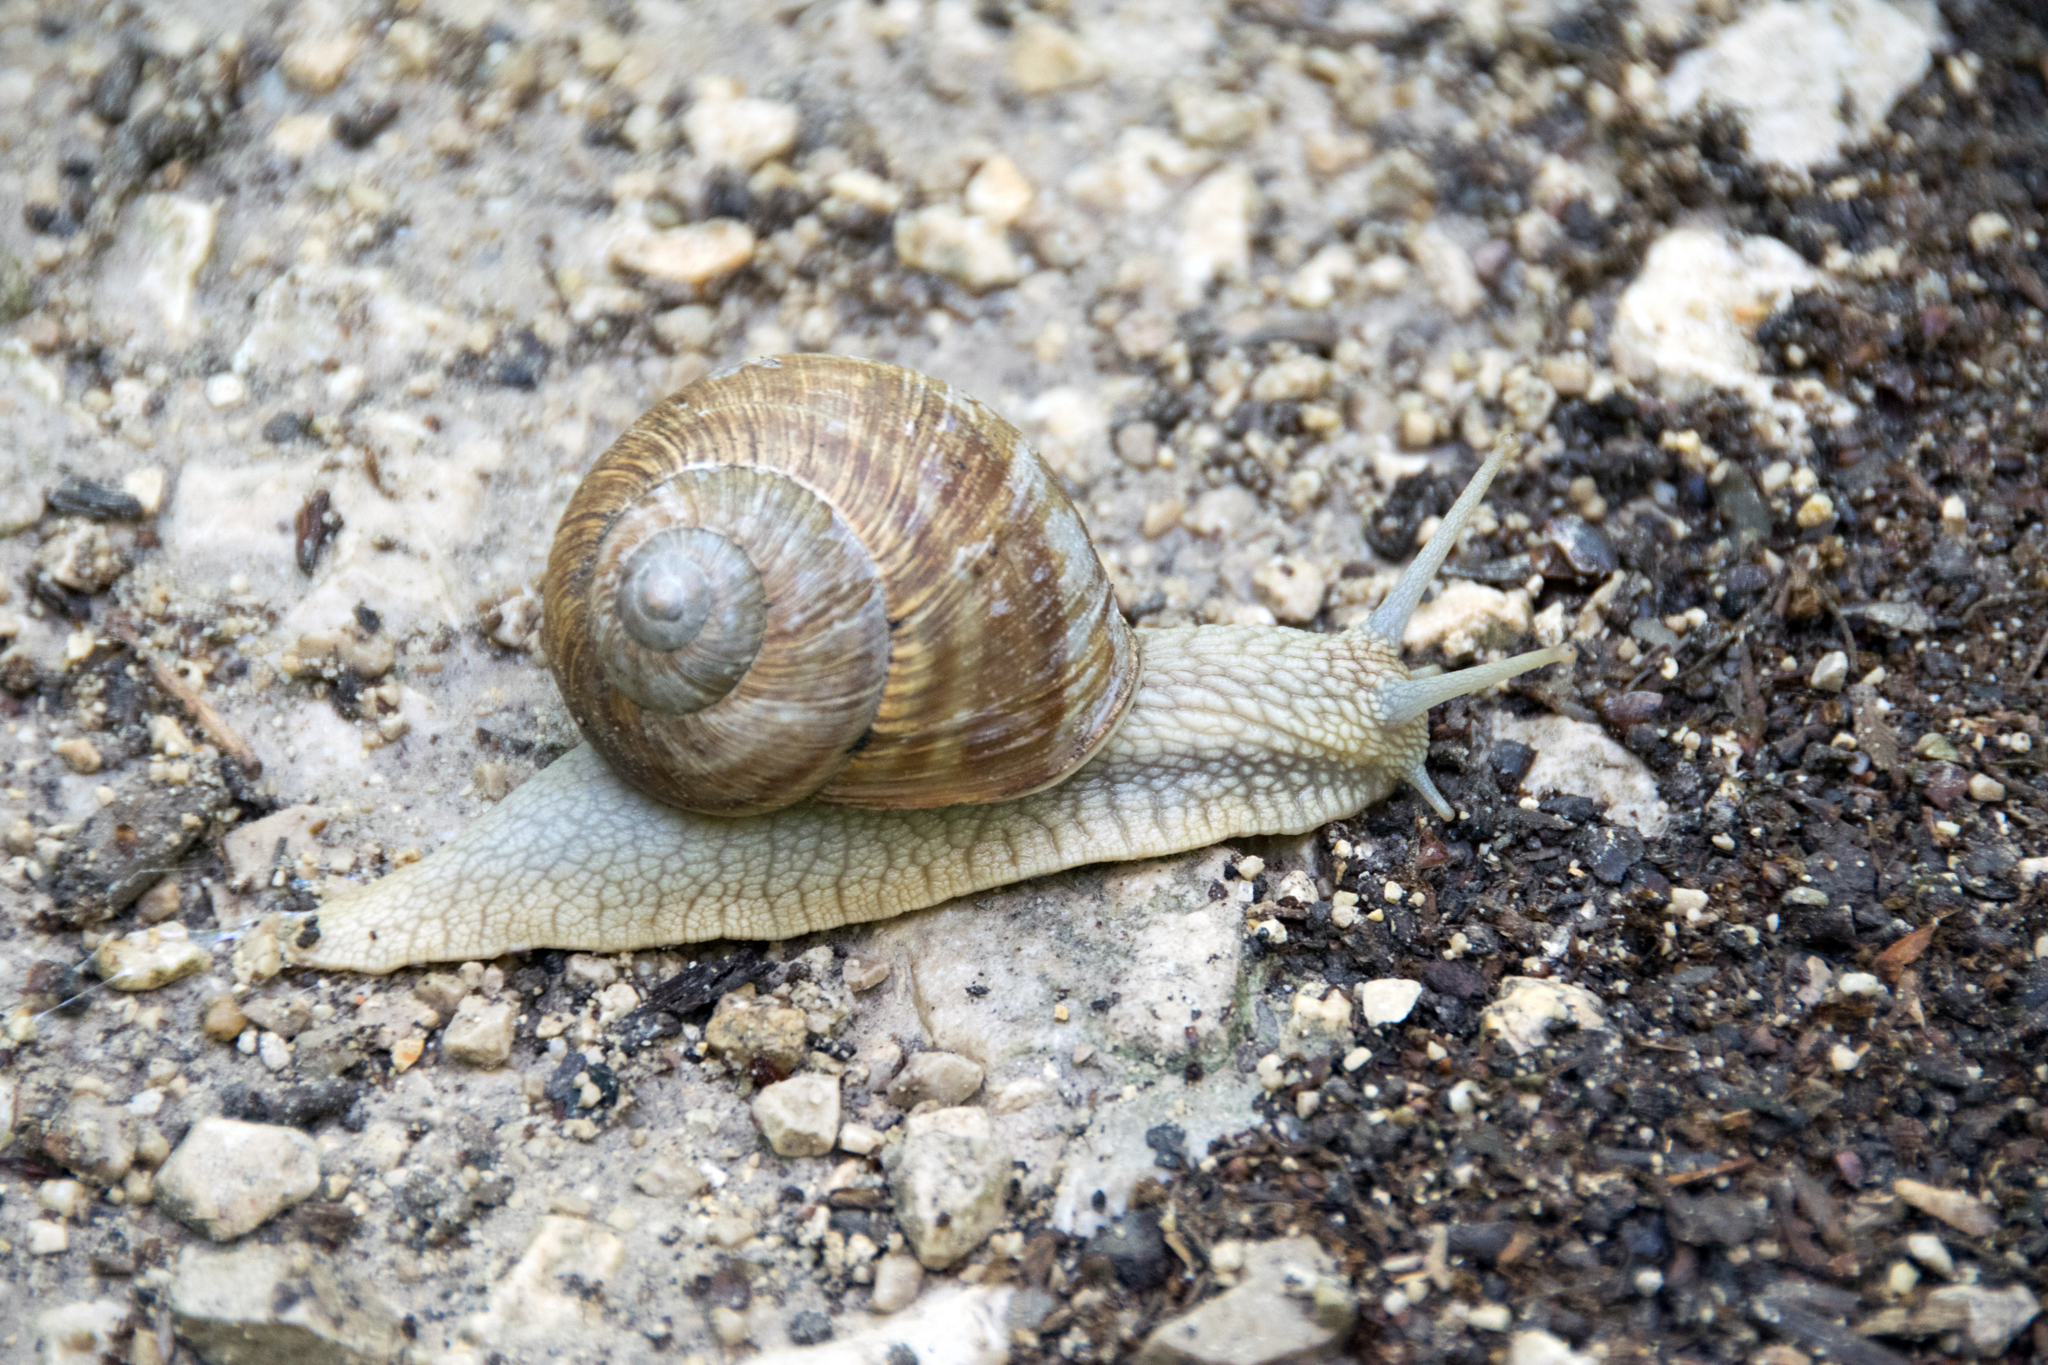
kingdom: Animalia
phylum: Mollusca
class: Gastropoda
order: Stylommatophora
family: Helicidae
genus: Helix
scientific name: Helix pomatia
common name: Roman snail
